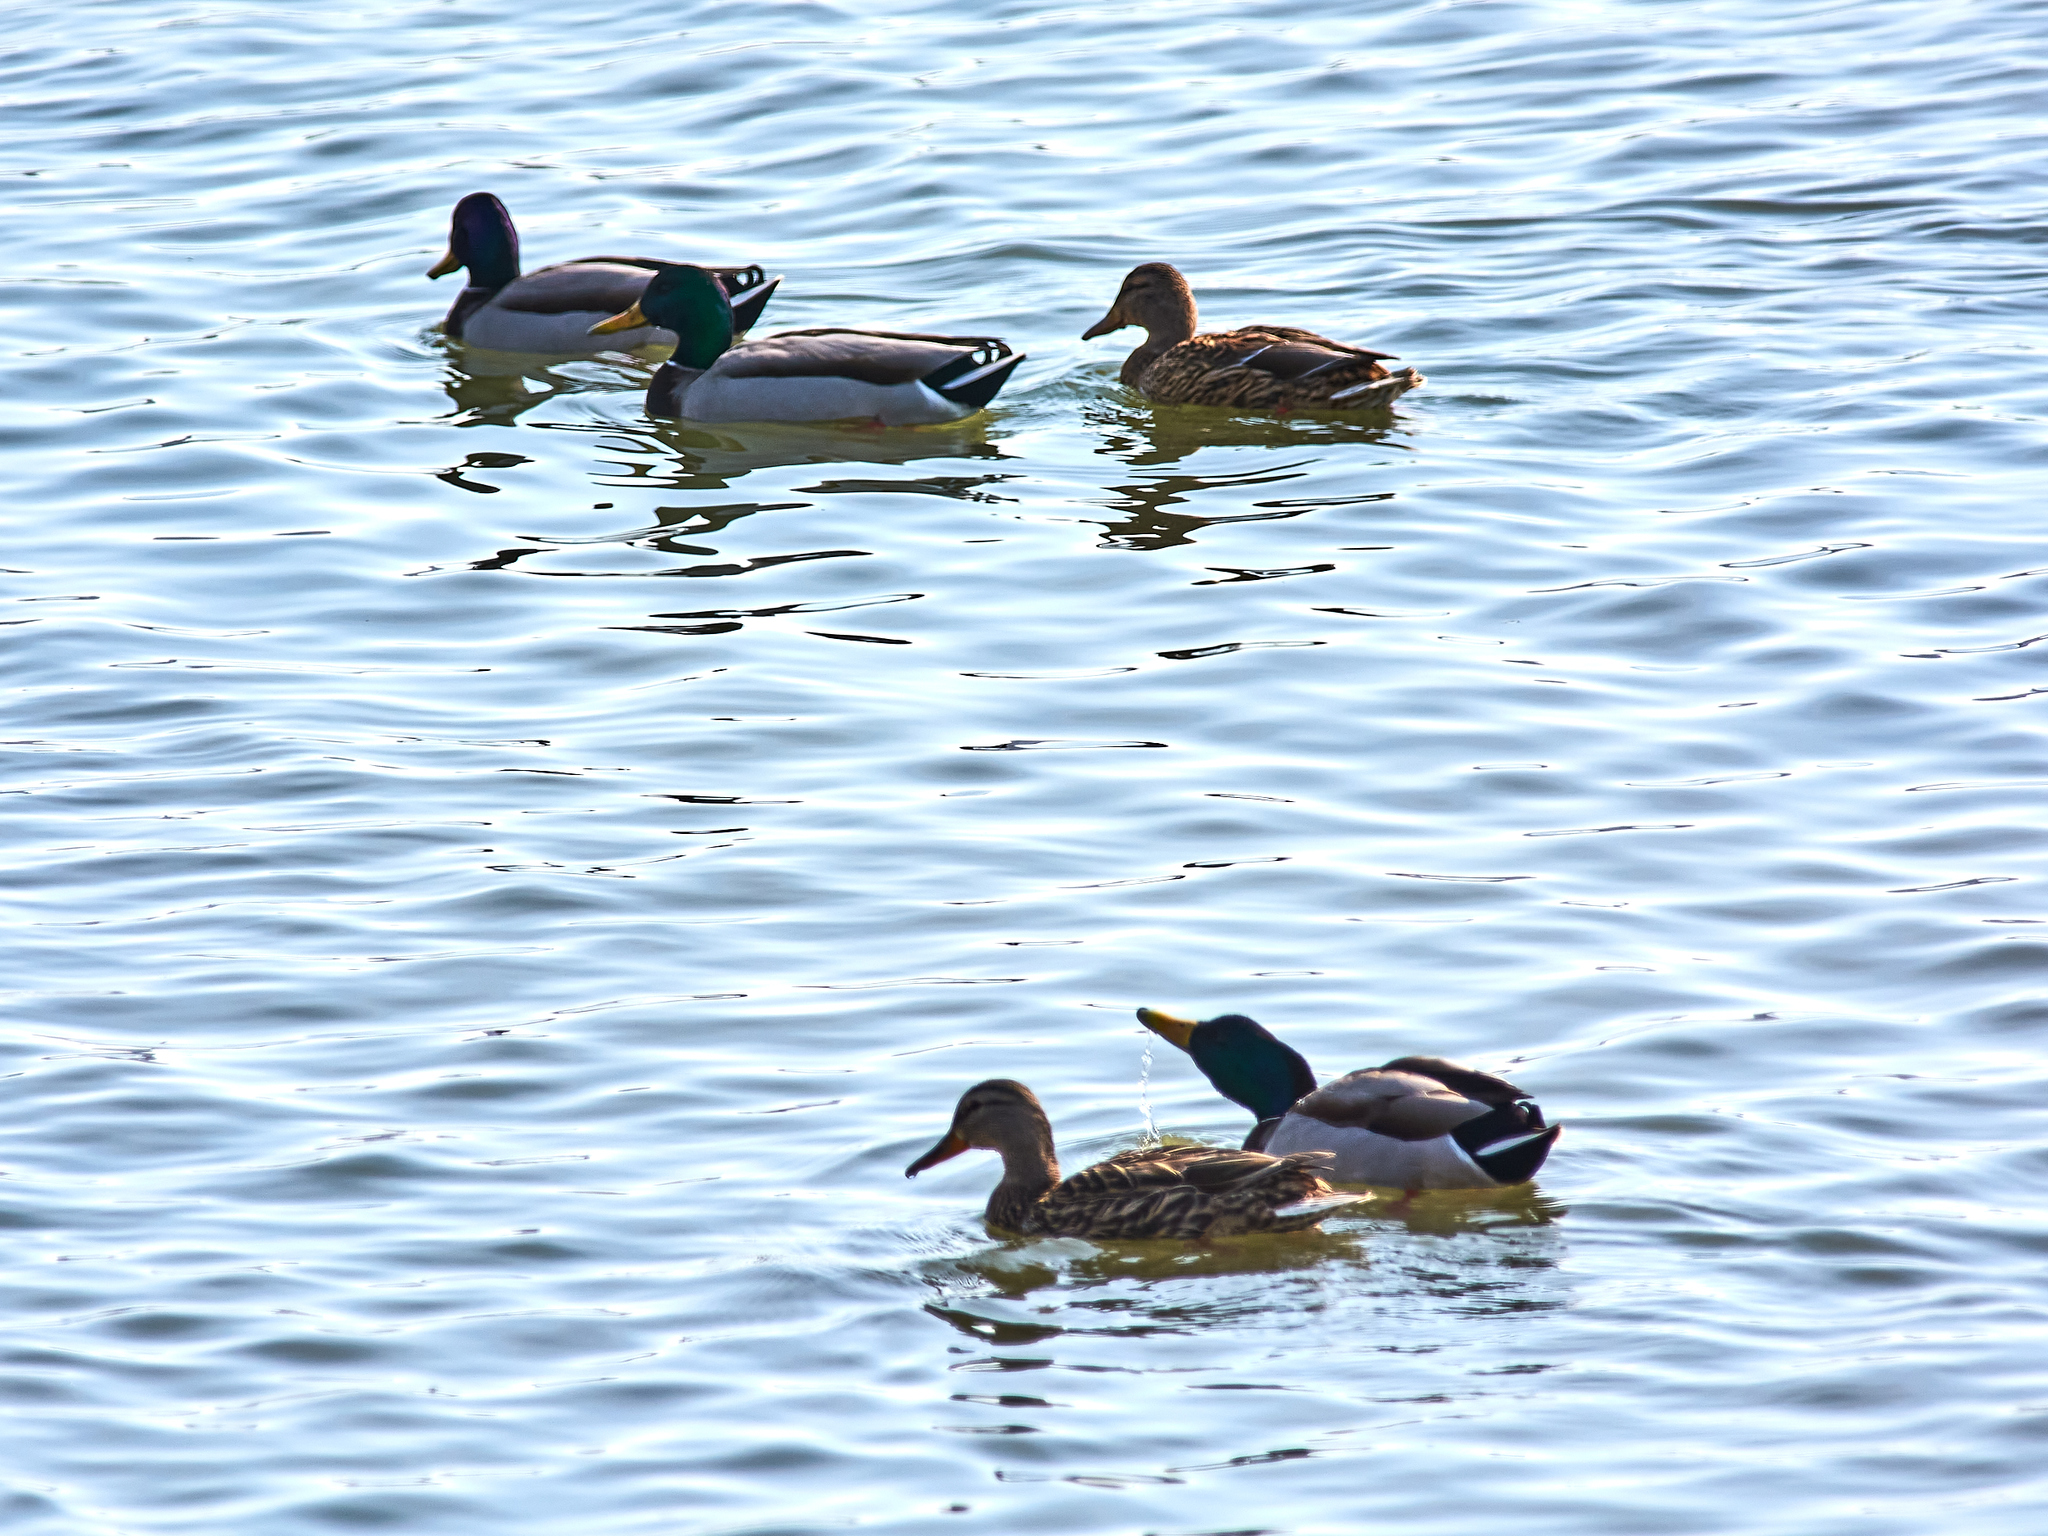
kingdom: Animalia
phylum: Chordata
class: Aves
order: Anseriformes
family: Anatidae
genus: Anas
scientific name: Anas platyrhynchos
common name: Mallard
